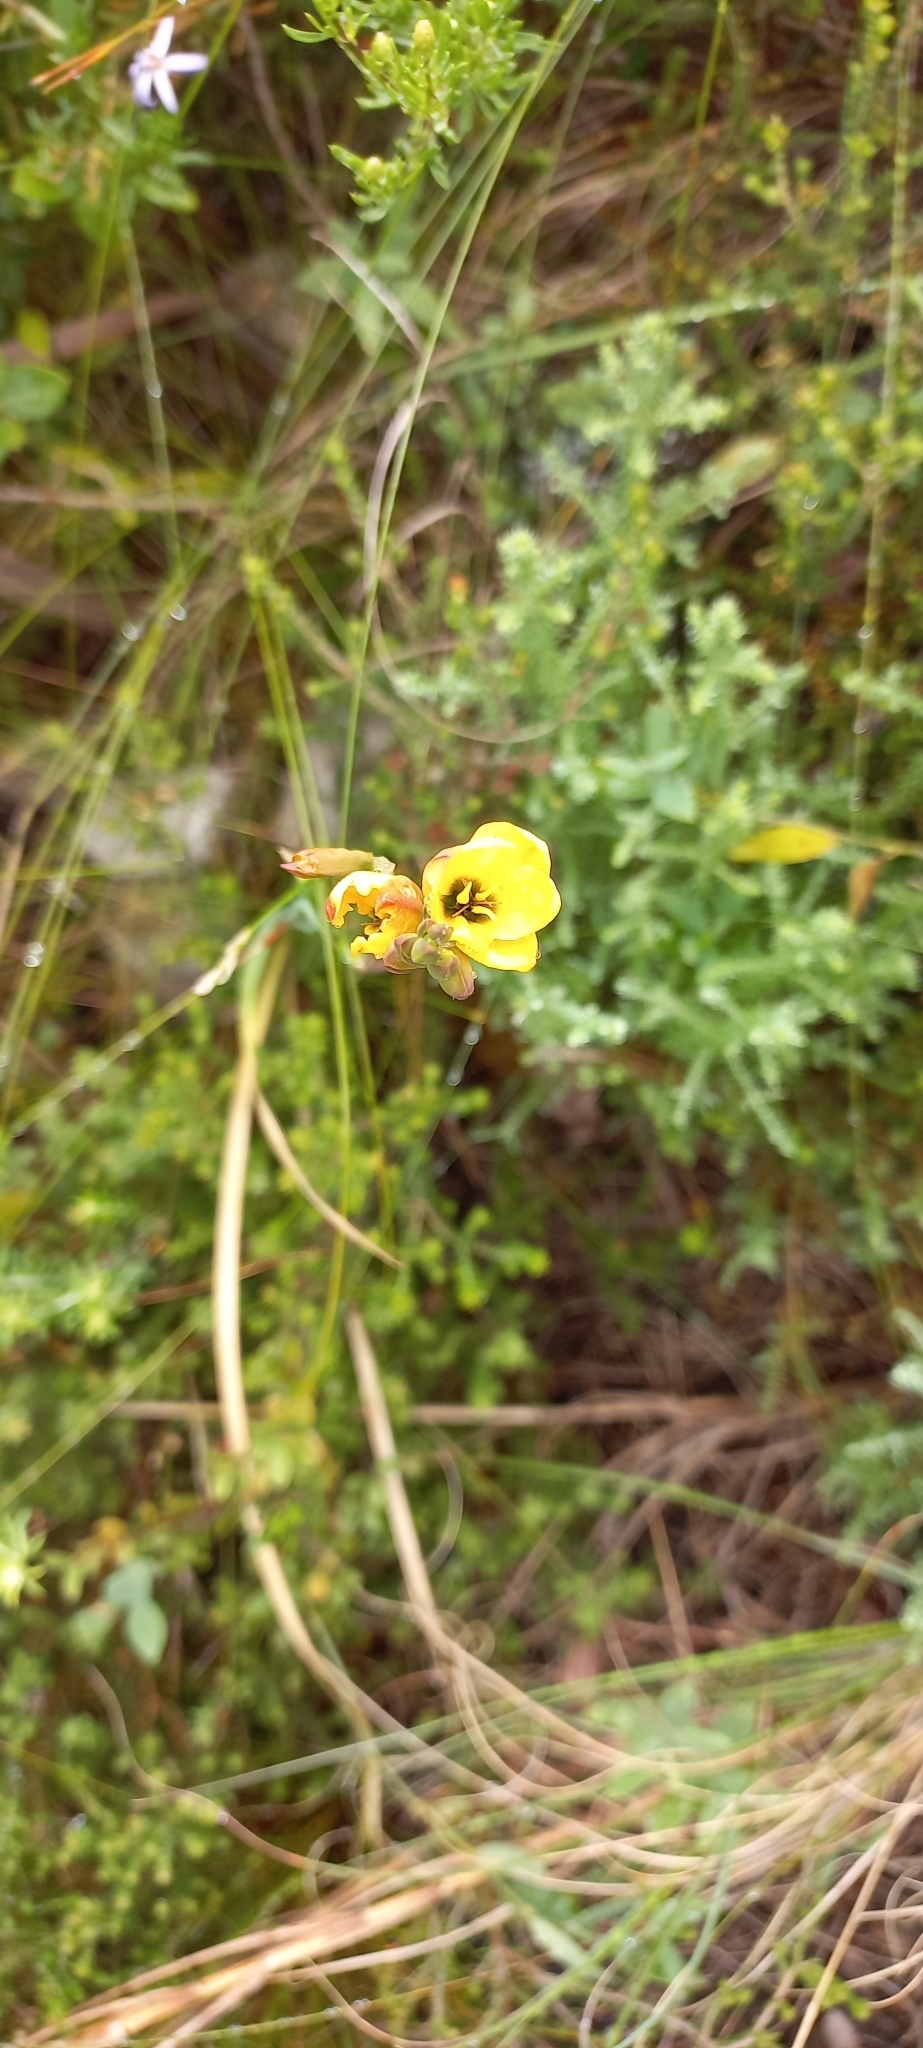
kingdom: Plantae
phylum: Tracheophyta
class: Liliopsida
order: Asparagales
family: Iridaceae
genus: Ixia
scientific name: Ixia dubia
